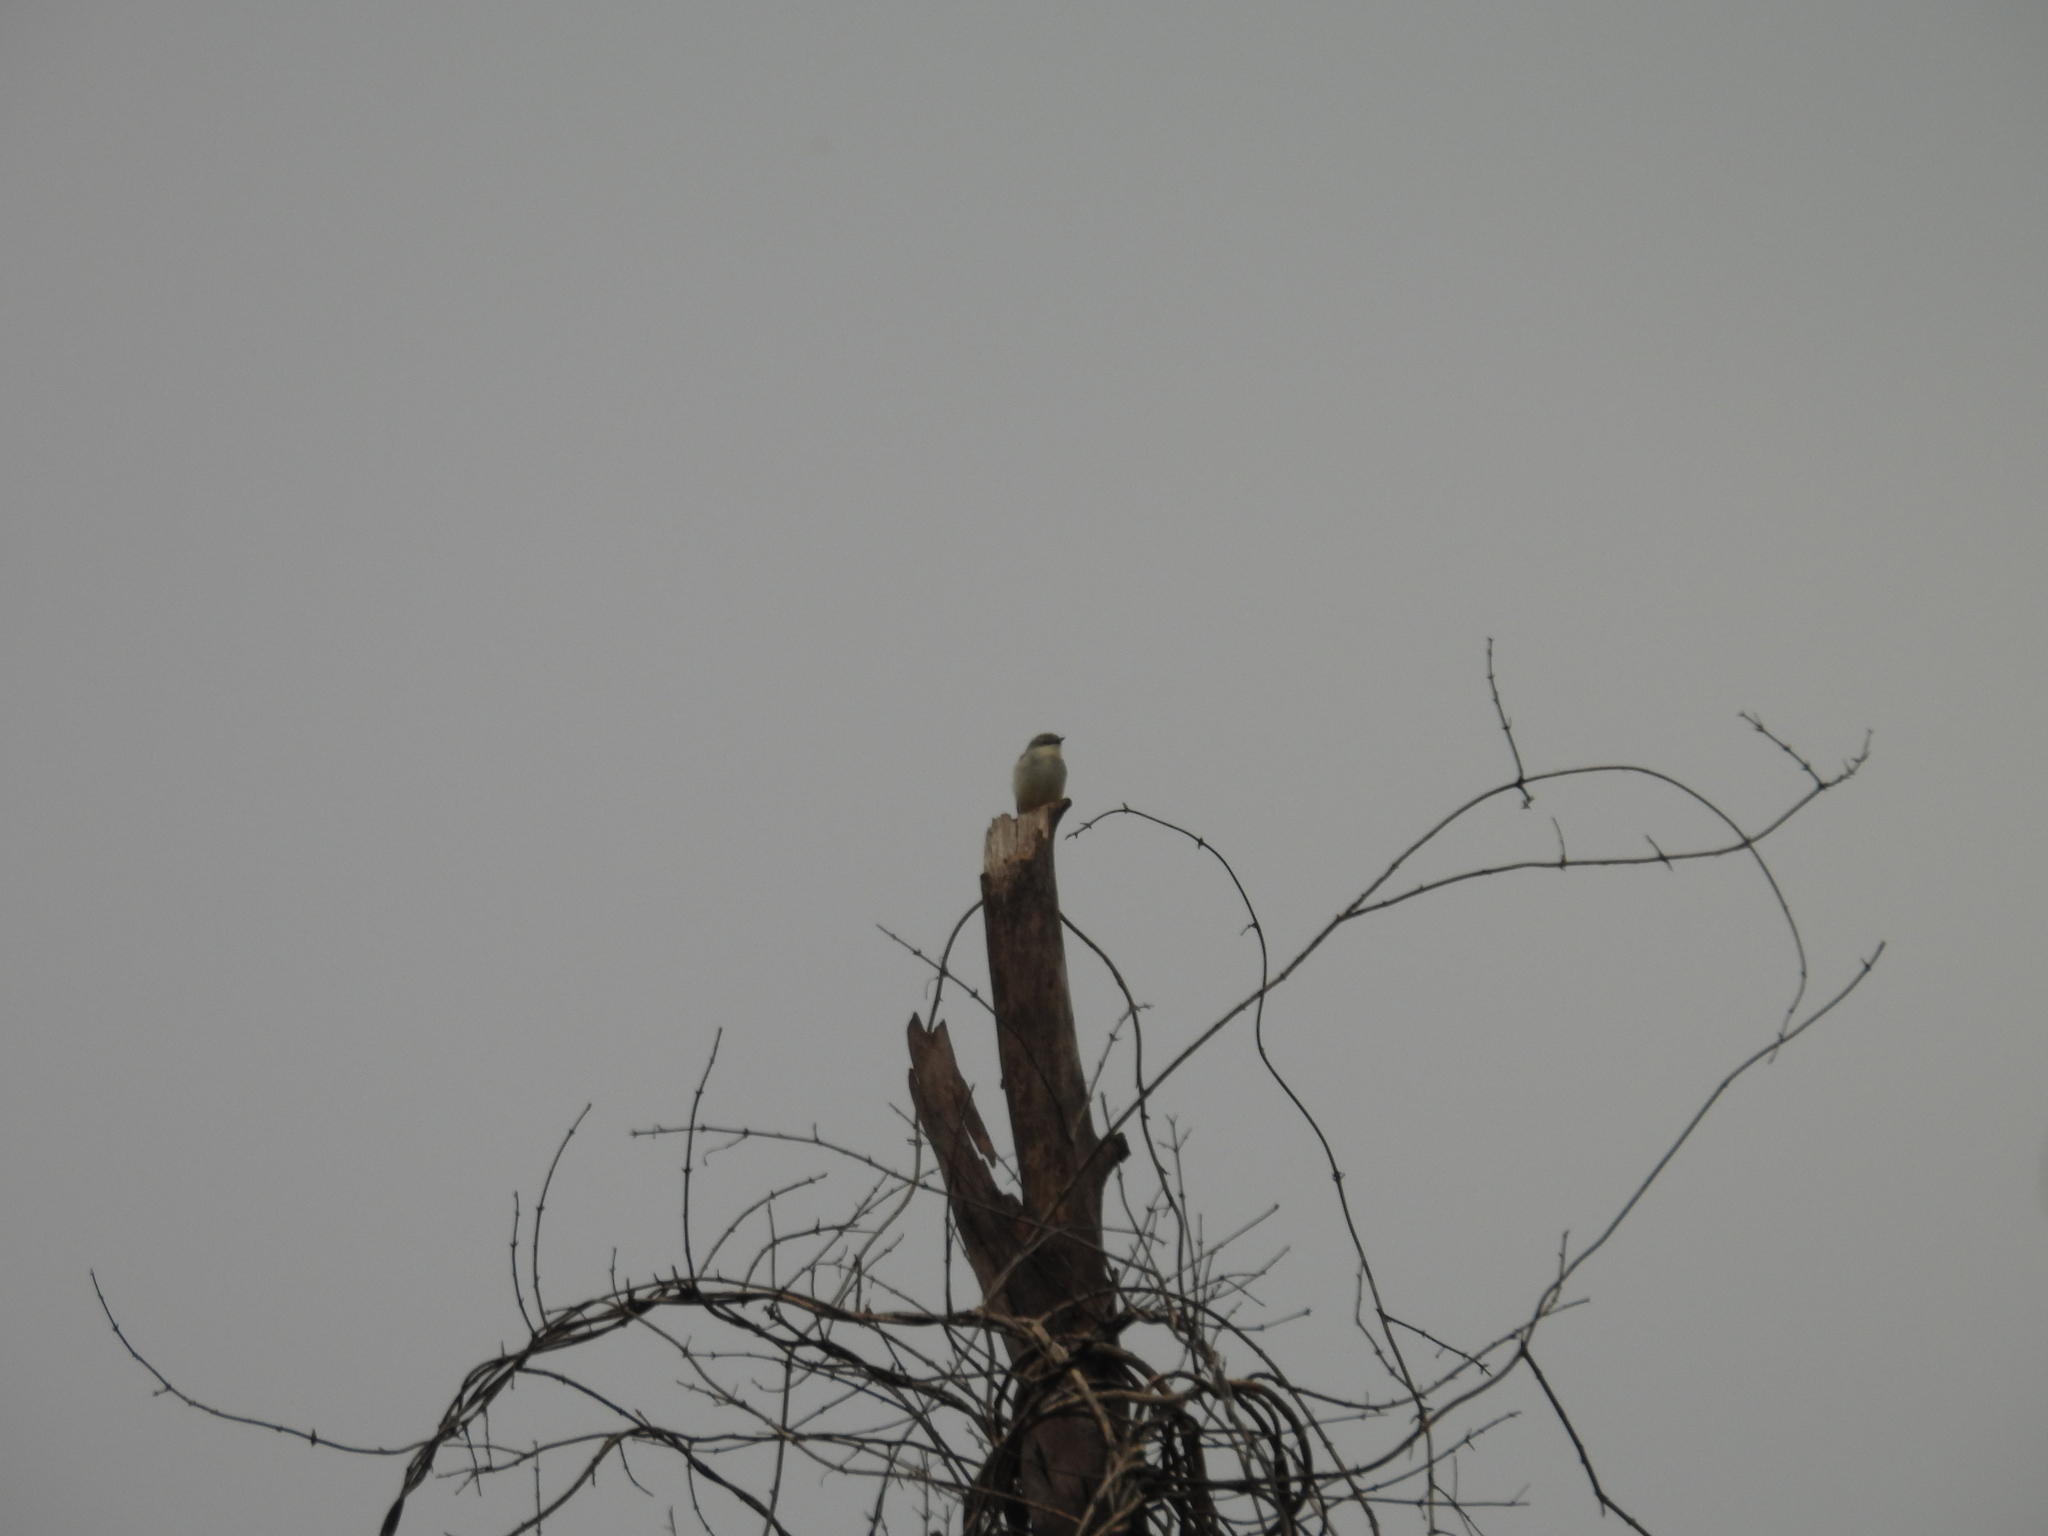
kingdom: Animalia
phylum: Chordata
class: Aves
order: Passeriformes
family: Cisticolidae
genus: Prinia
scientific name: Prinia hodgsonii
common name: Grey-breasted prinia
